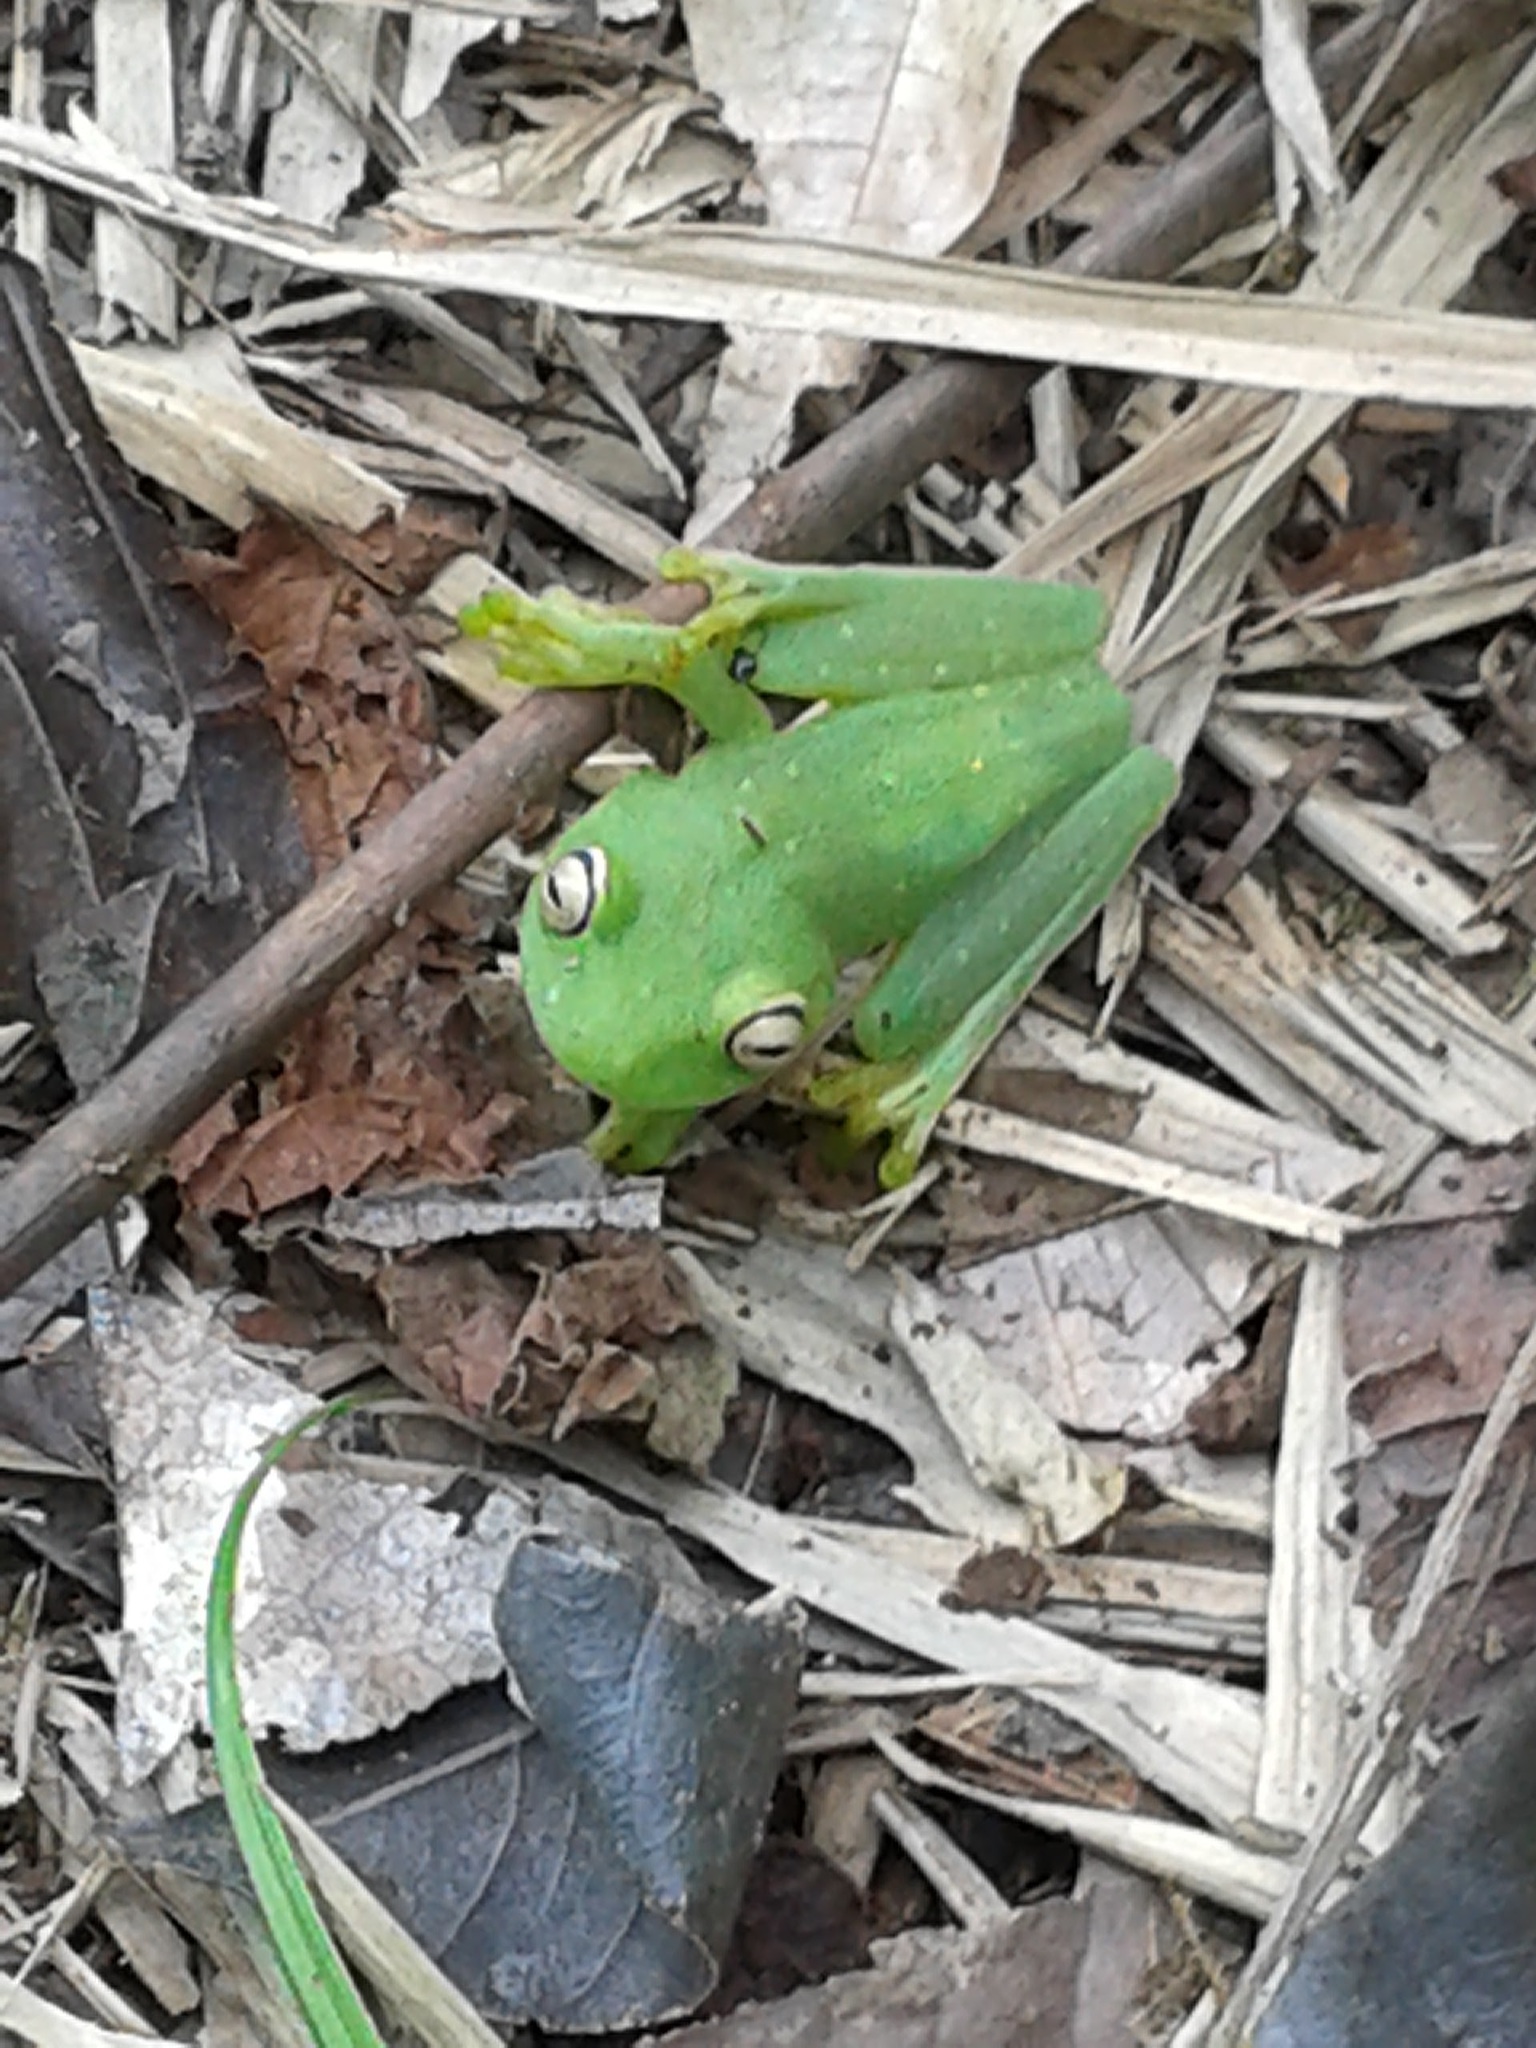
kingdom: Animalia
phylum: Chordata
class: Amphibia
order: Anura
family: Hylidae
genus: Boana
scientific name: Boana punctata
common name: Polka-dot treefrog
